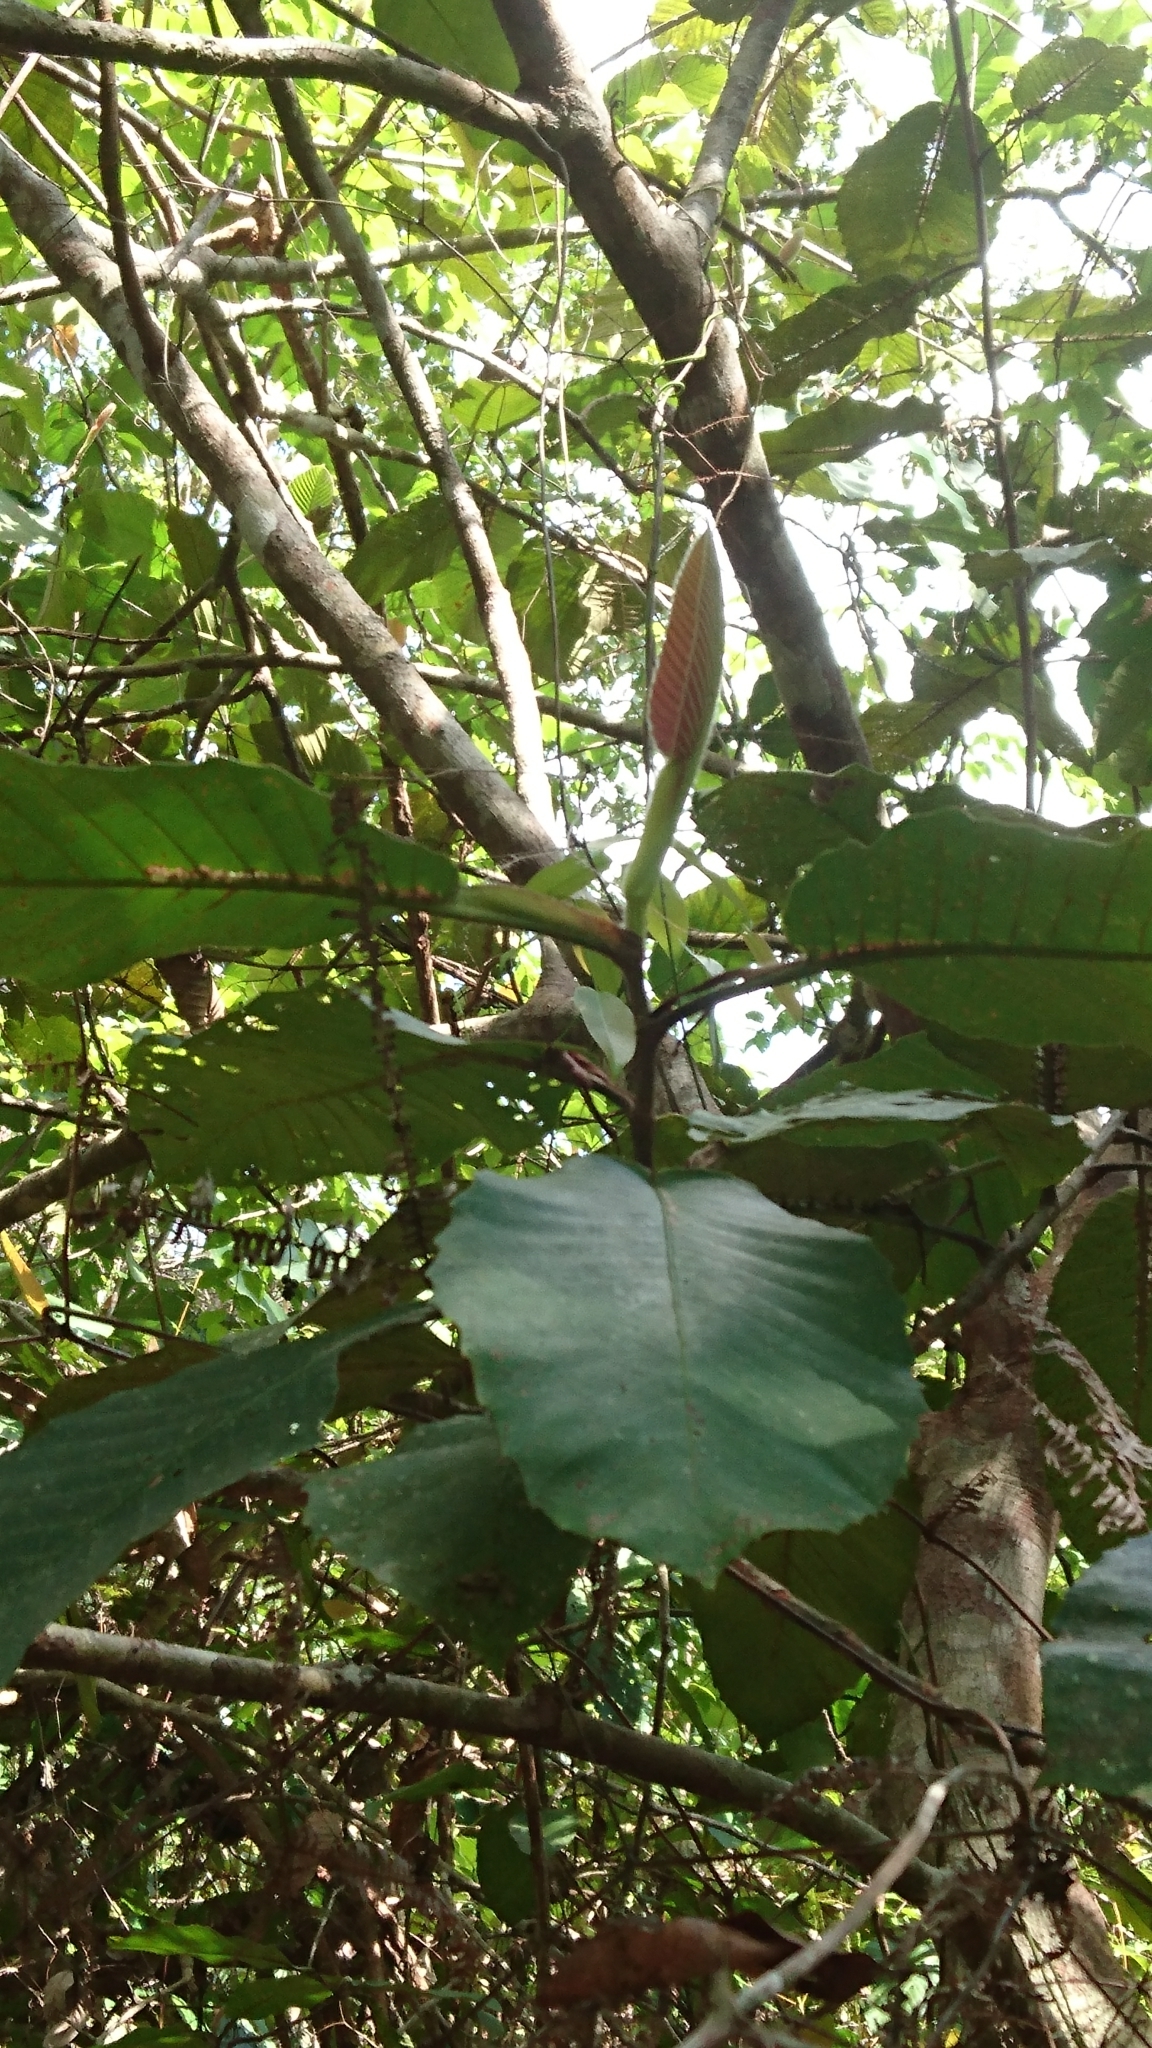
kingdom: Plantae
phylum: Tracheophyta
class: Magnoliopsida
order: Dilleniales
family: Dilleniaceae
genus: Dillenia
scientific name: Dillenia suffruticosa
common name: Shrubby dillenia
